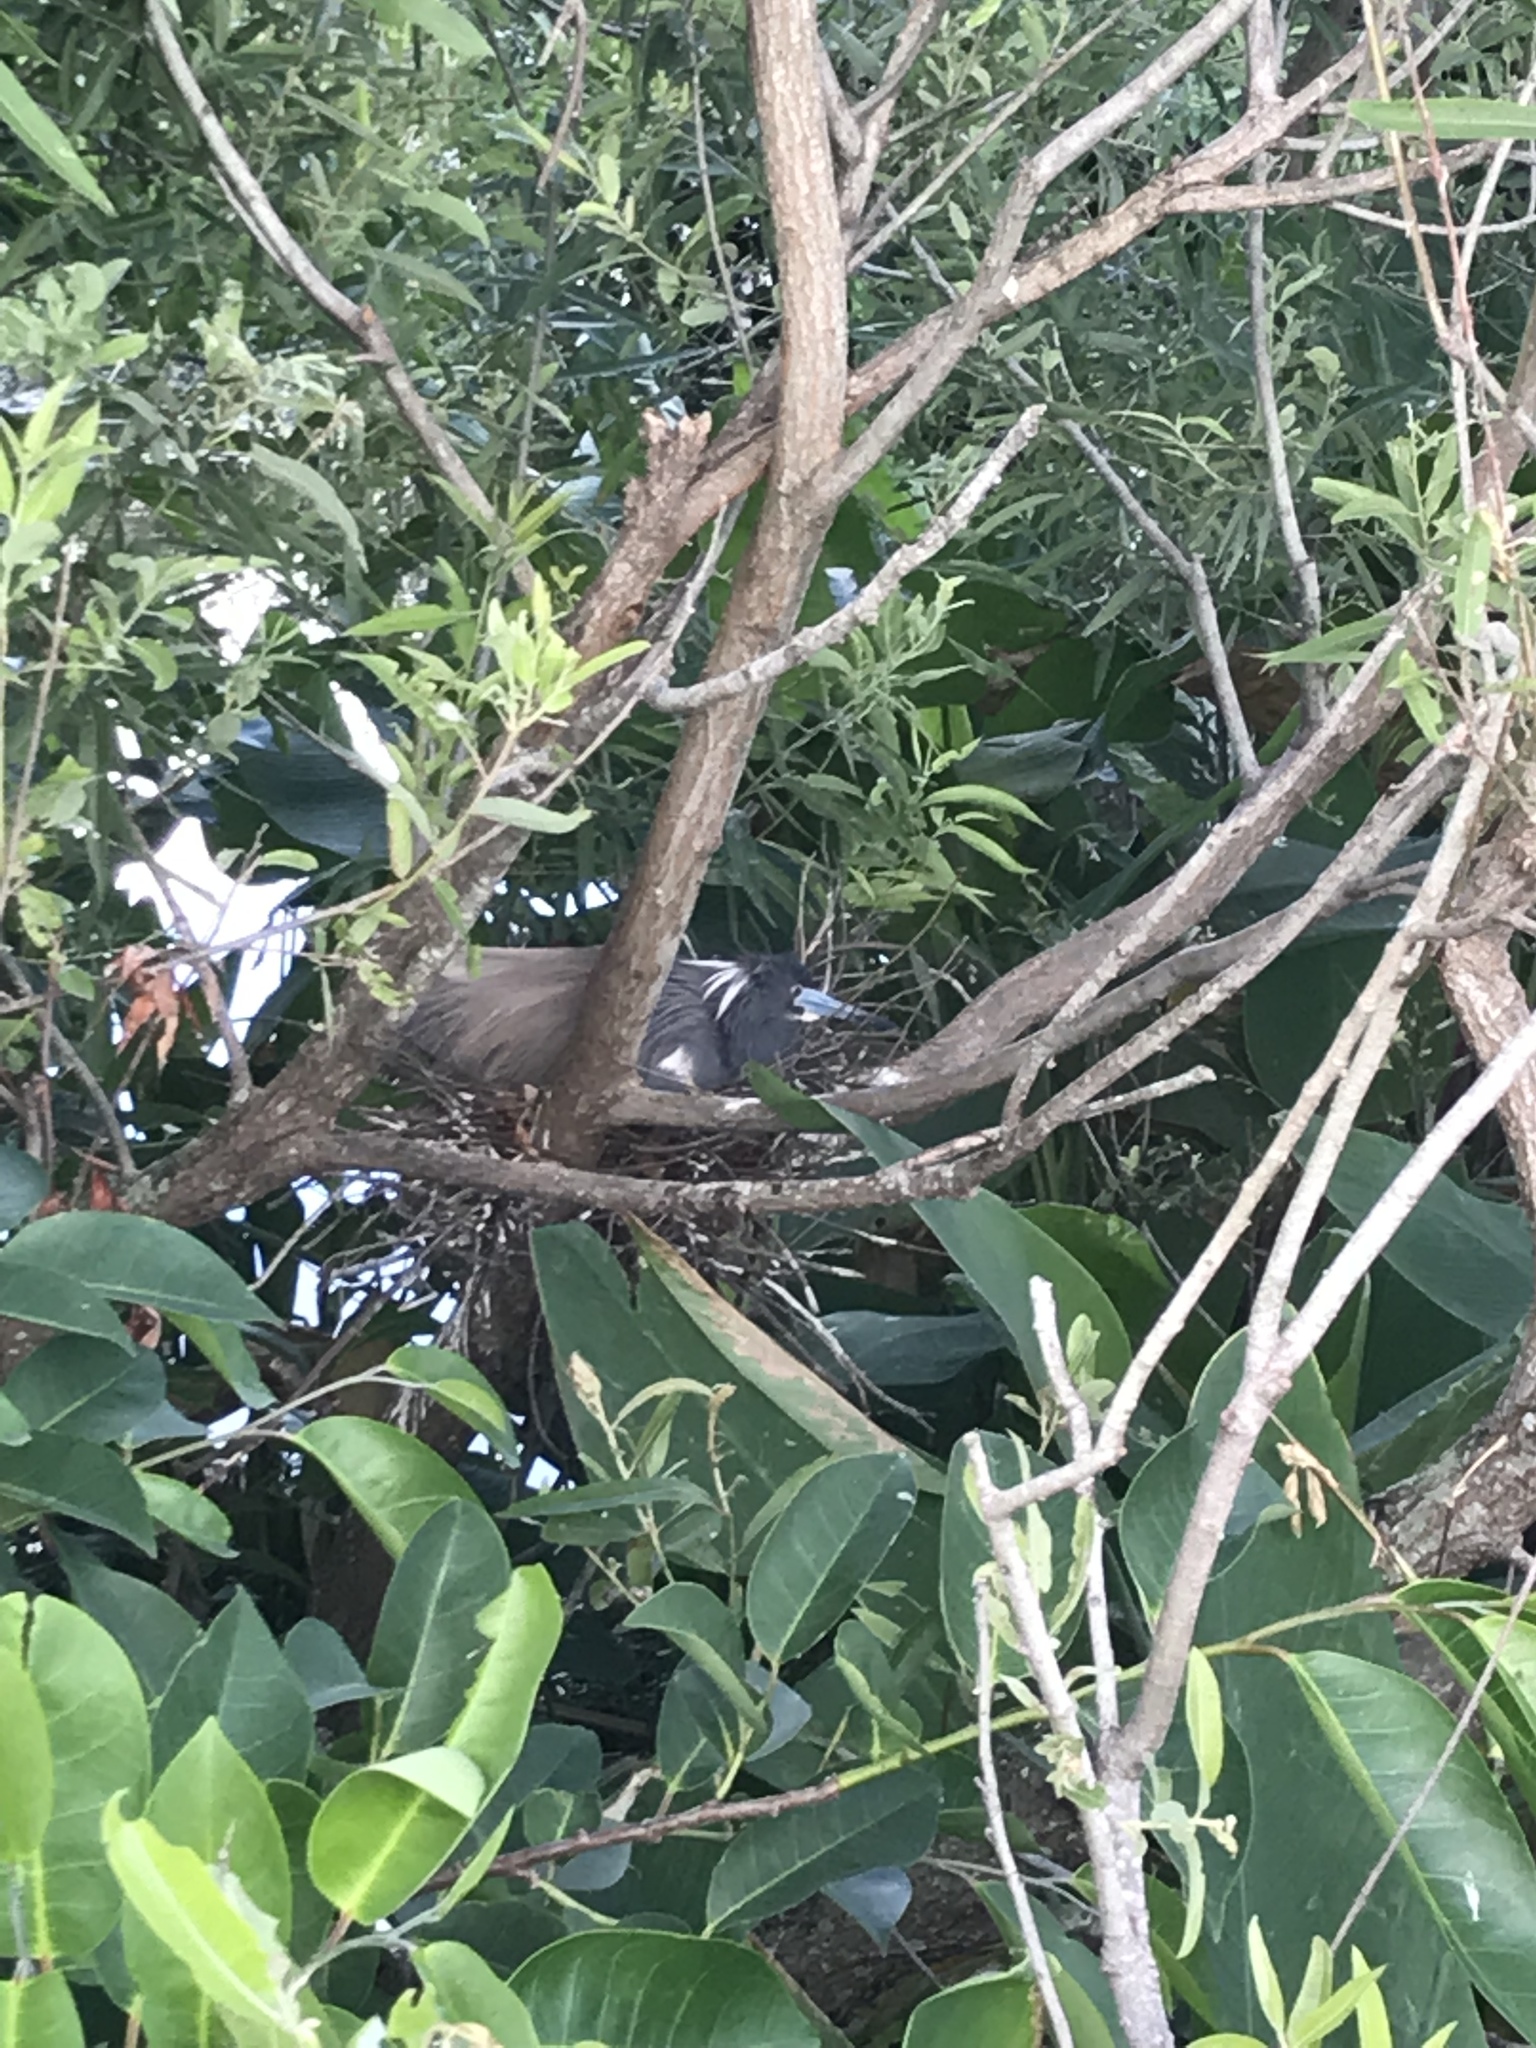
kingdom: Animalia
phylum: Chordata
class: Aves
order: Pelecaniformes
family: Ardeidae
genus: Egretta
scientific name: Egretta tricolor
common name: Tricolored heron
